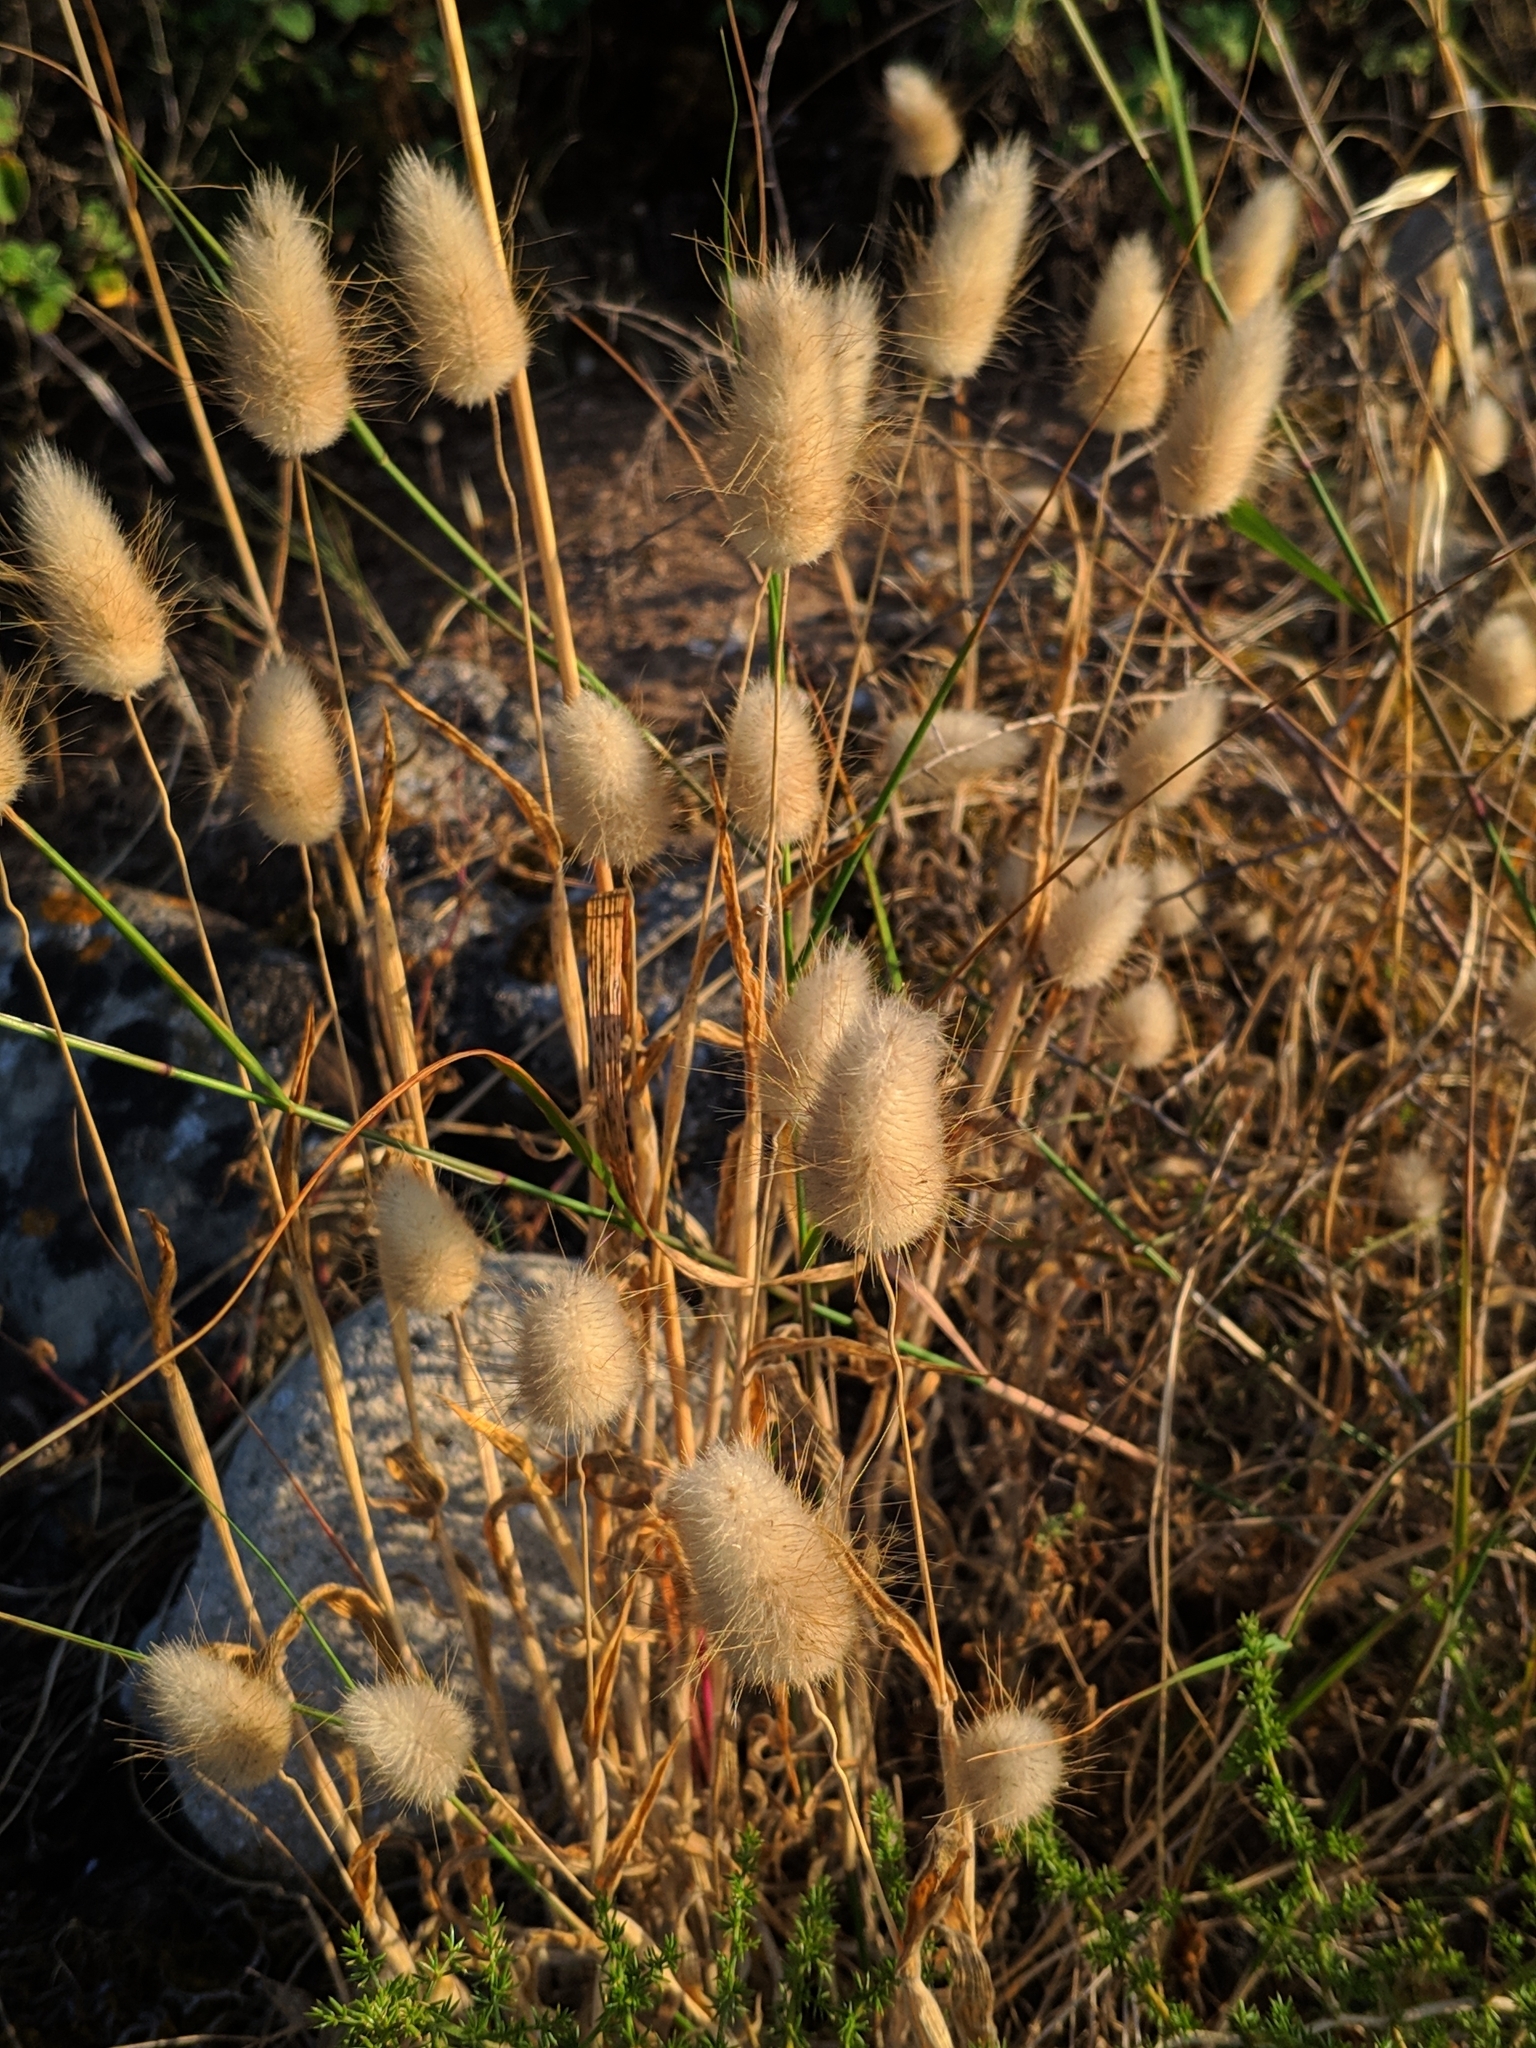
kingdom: Plantae
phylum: Tracheophyta
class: Liliopsida
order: Poales
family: Poaceae
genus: Lagurus
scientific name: Lagurus ovatus
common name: Hare's-tail
